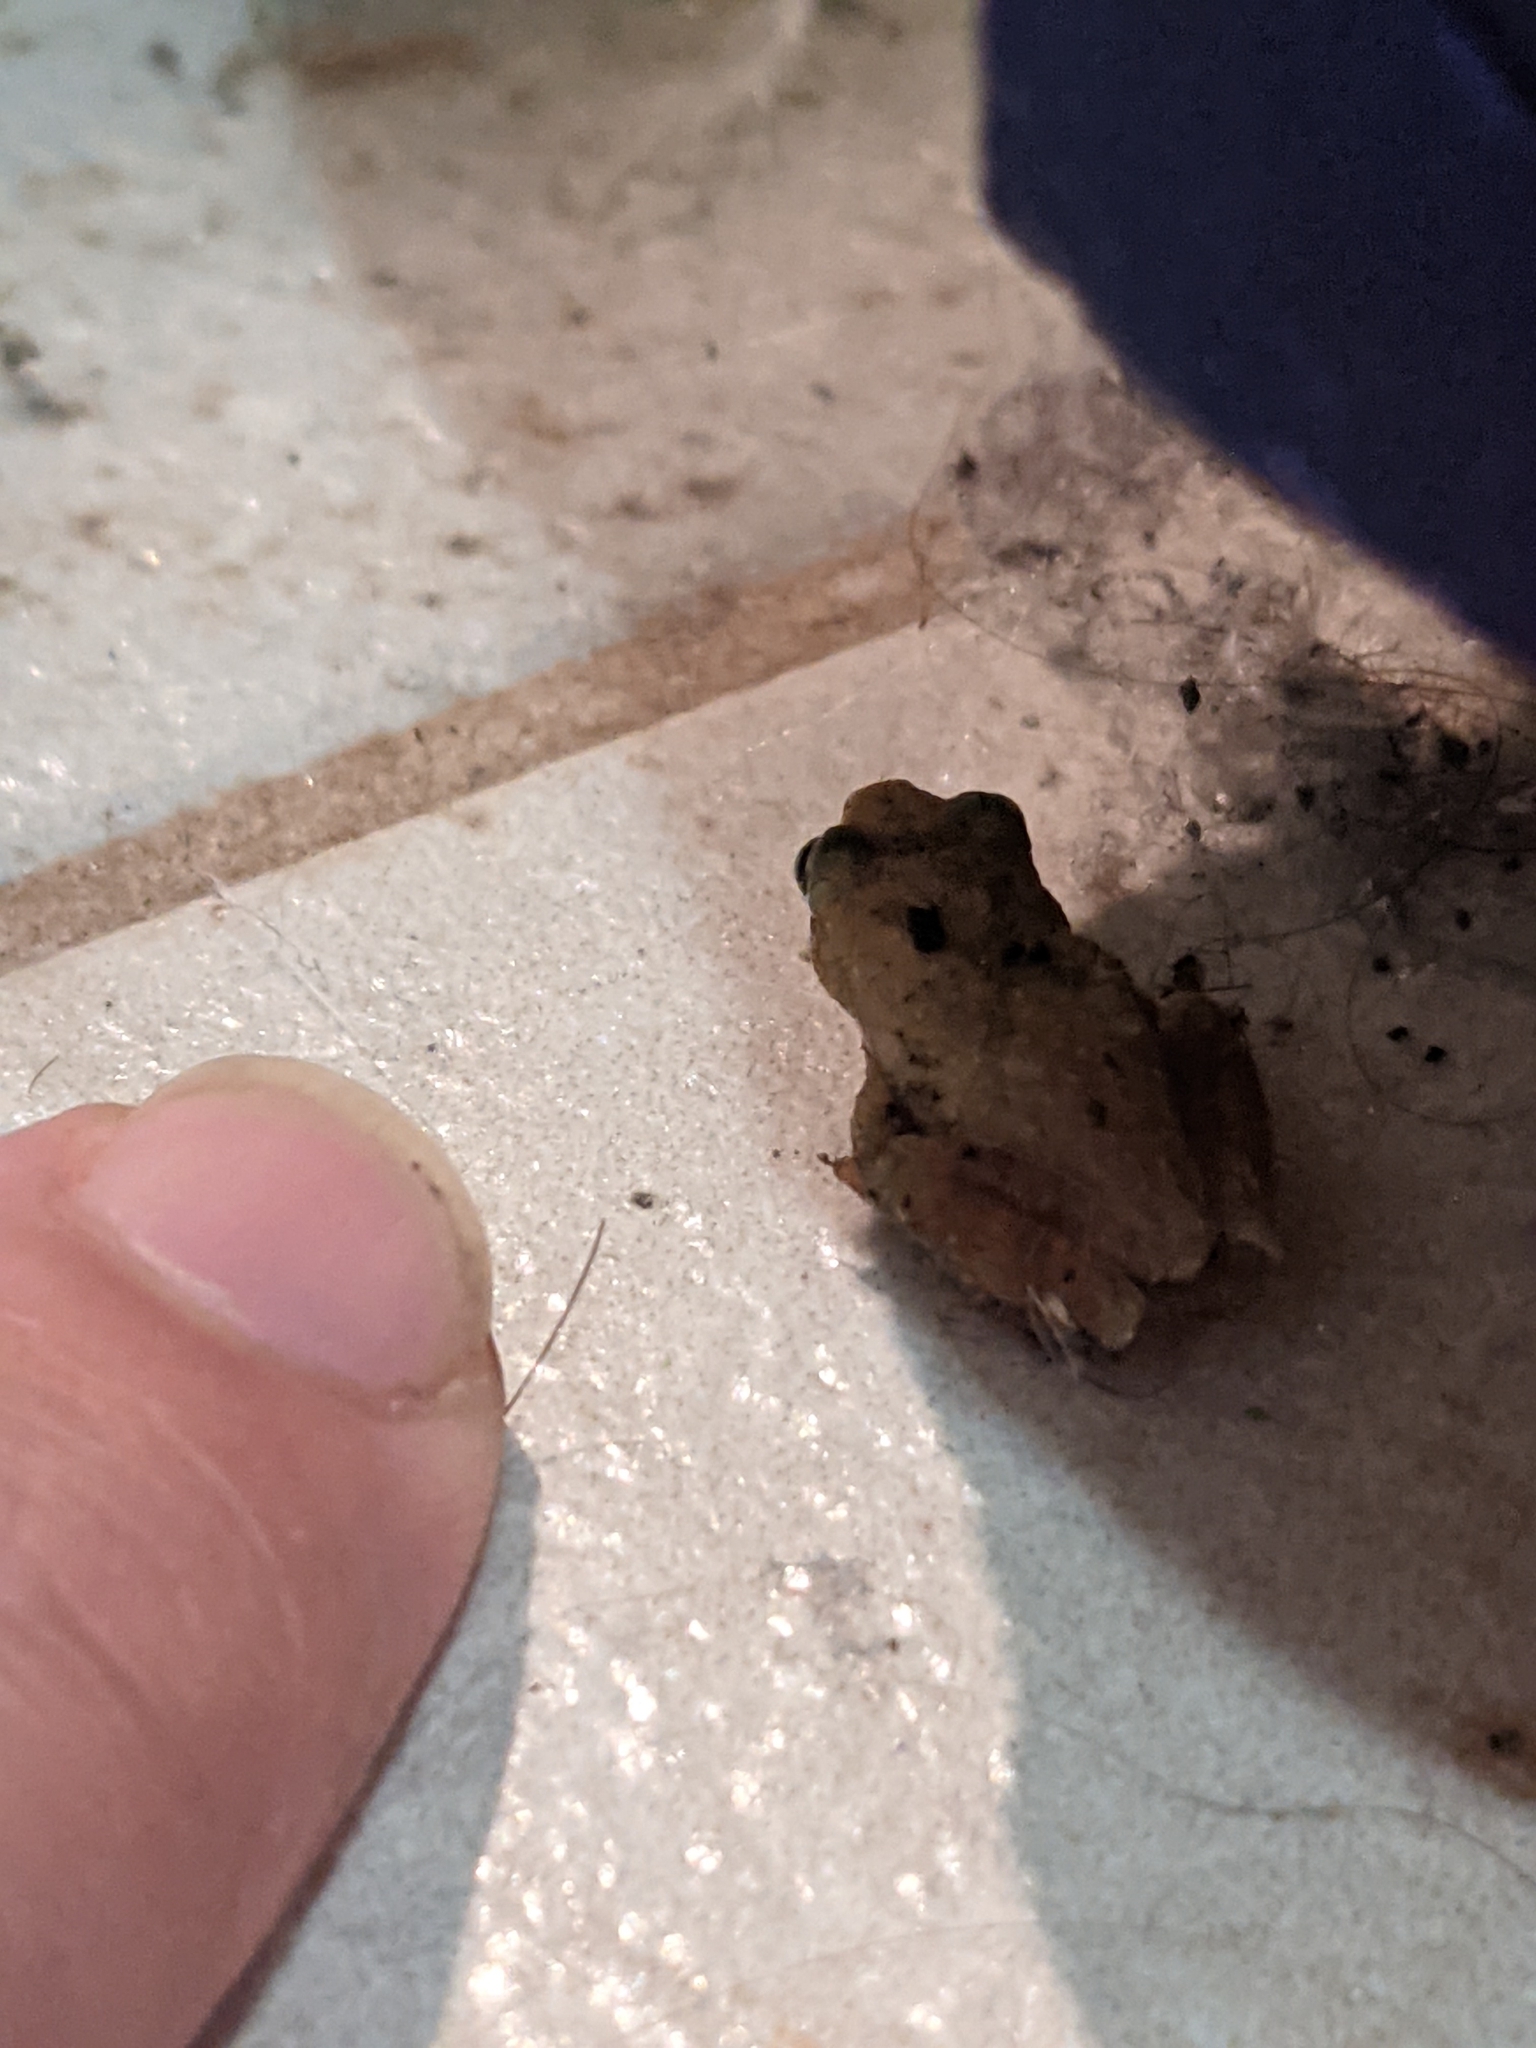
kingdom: Animalia
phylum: Chordata
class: Amphibia
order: Anura
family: Hylidae
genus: Pseudacris
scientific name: Pseudacris crucifer
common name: Spring peeper
